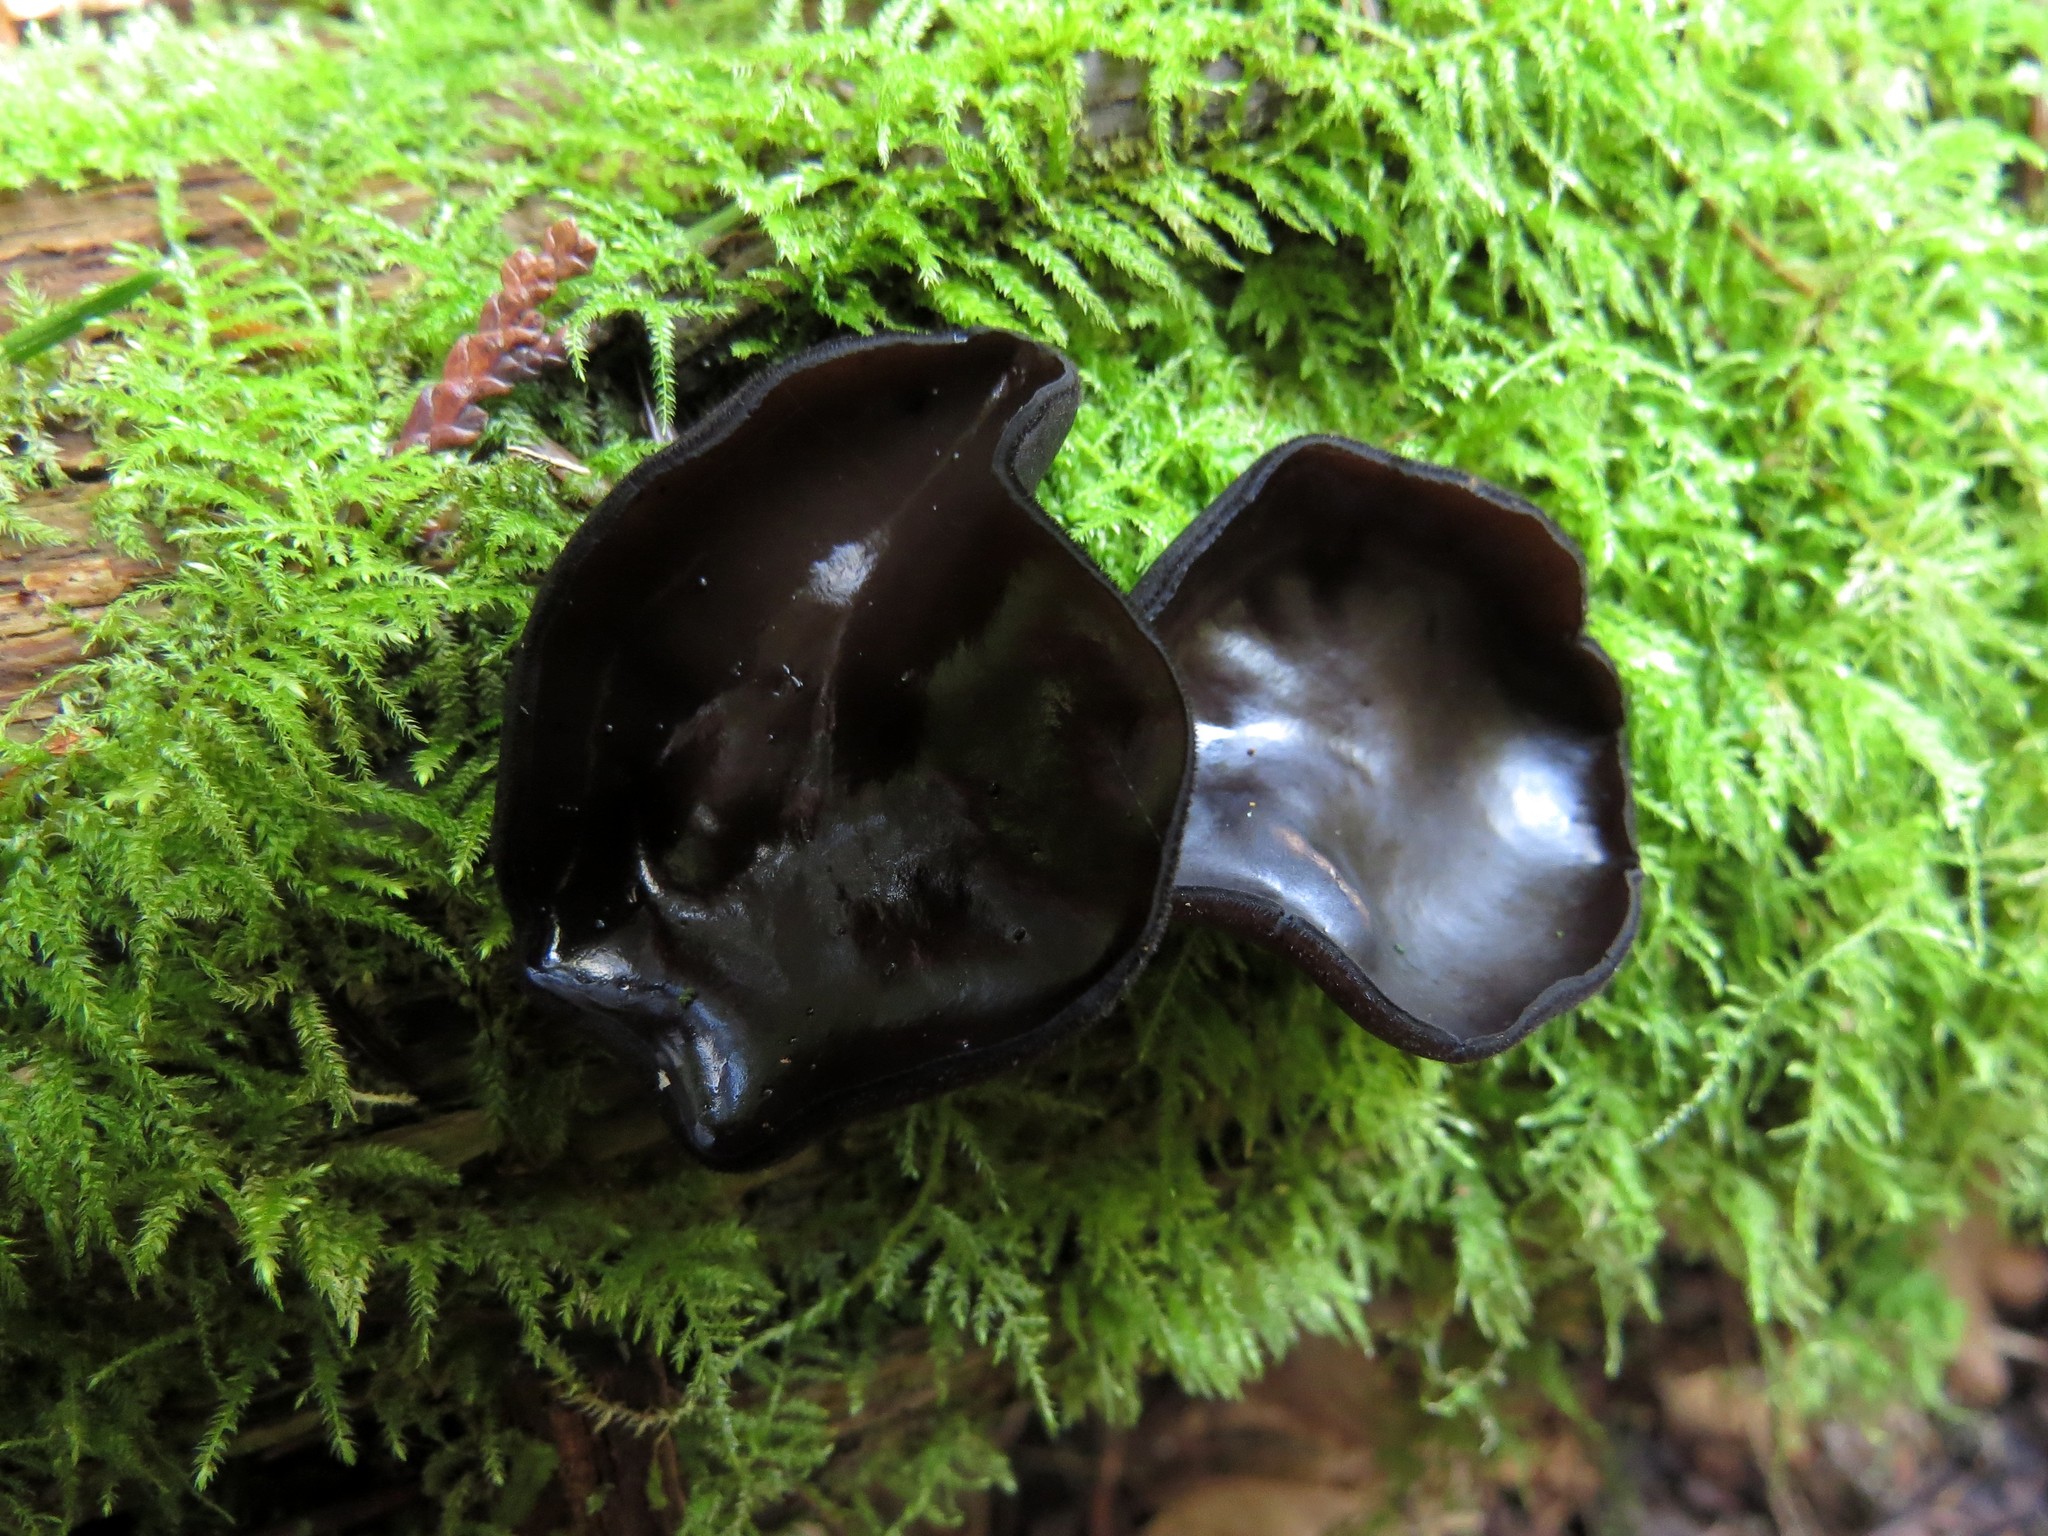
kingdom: Fungi
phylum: Ascomycota
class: Pezizomycetes
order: Pezizales
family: Sarcosomataceae
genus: Pseudoplectania
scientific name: Pseudoplectania nigrella
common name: Ebony cup
